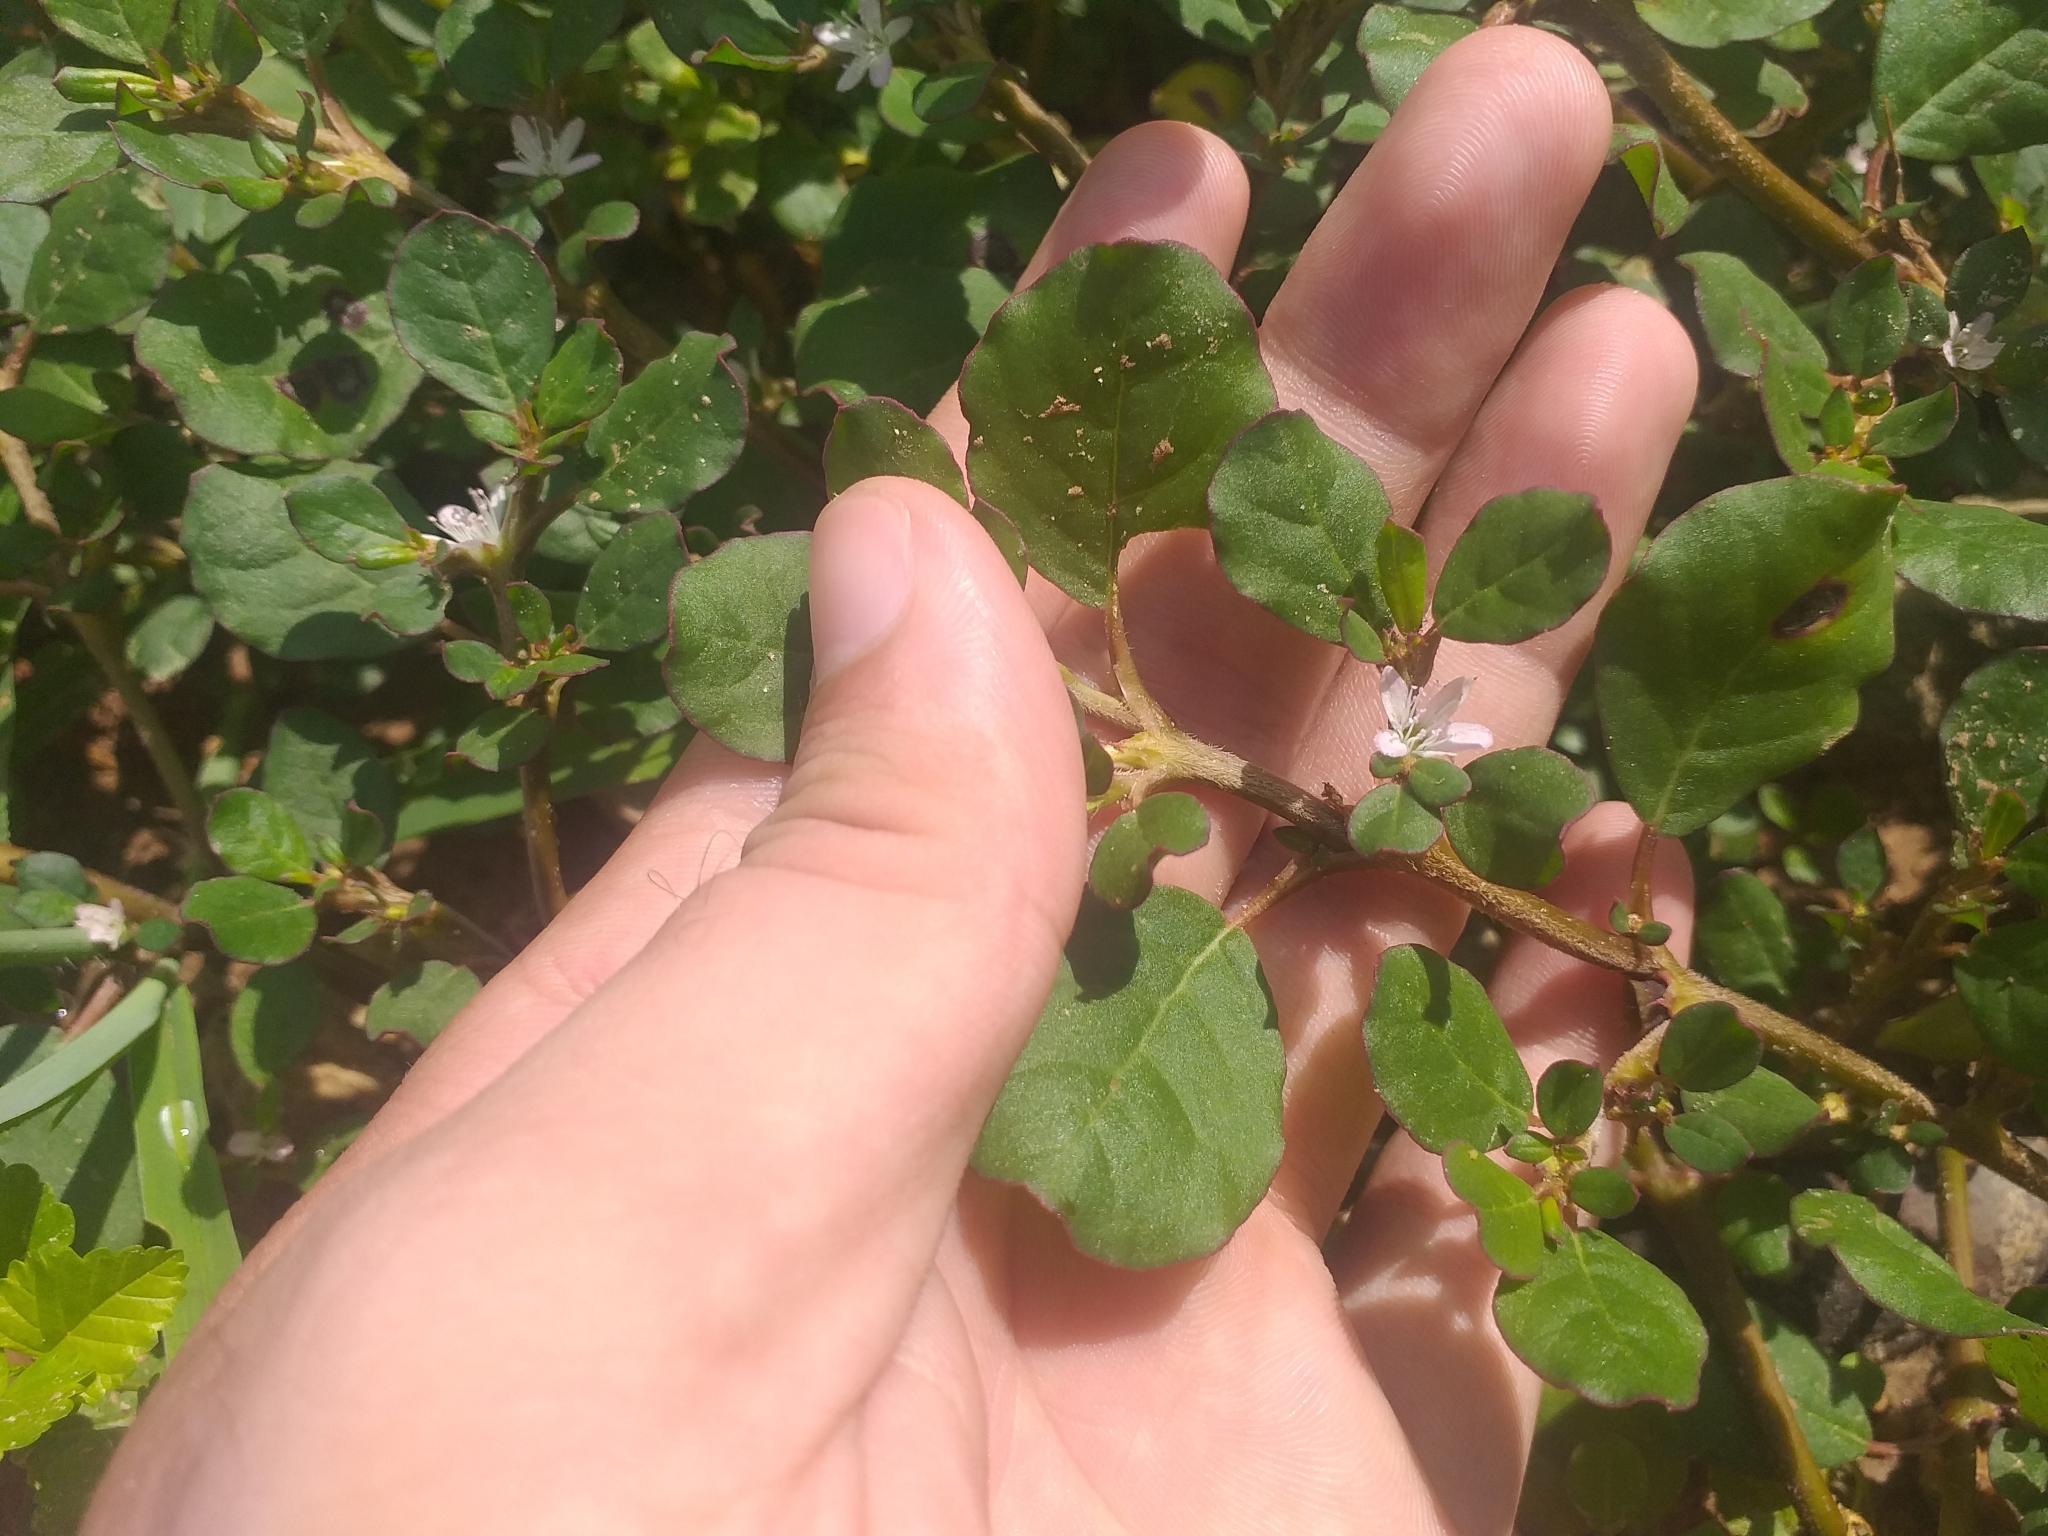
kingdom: Plantae
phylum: Tracheophyta
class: Magnoliopsida
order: Caryophyllales
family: Aizoaceae
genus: Trianthema
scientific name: Trianthema portulacastrum
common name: Desert horsepurslane
